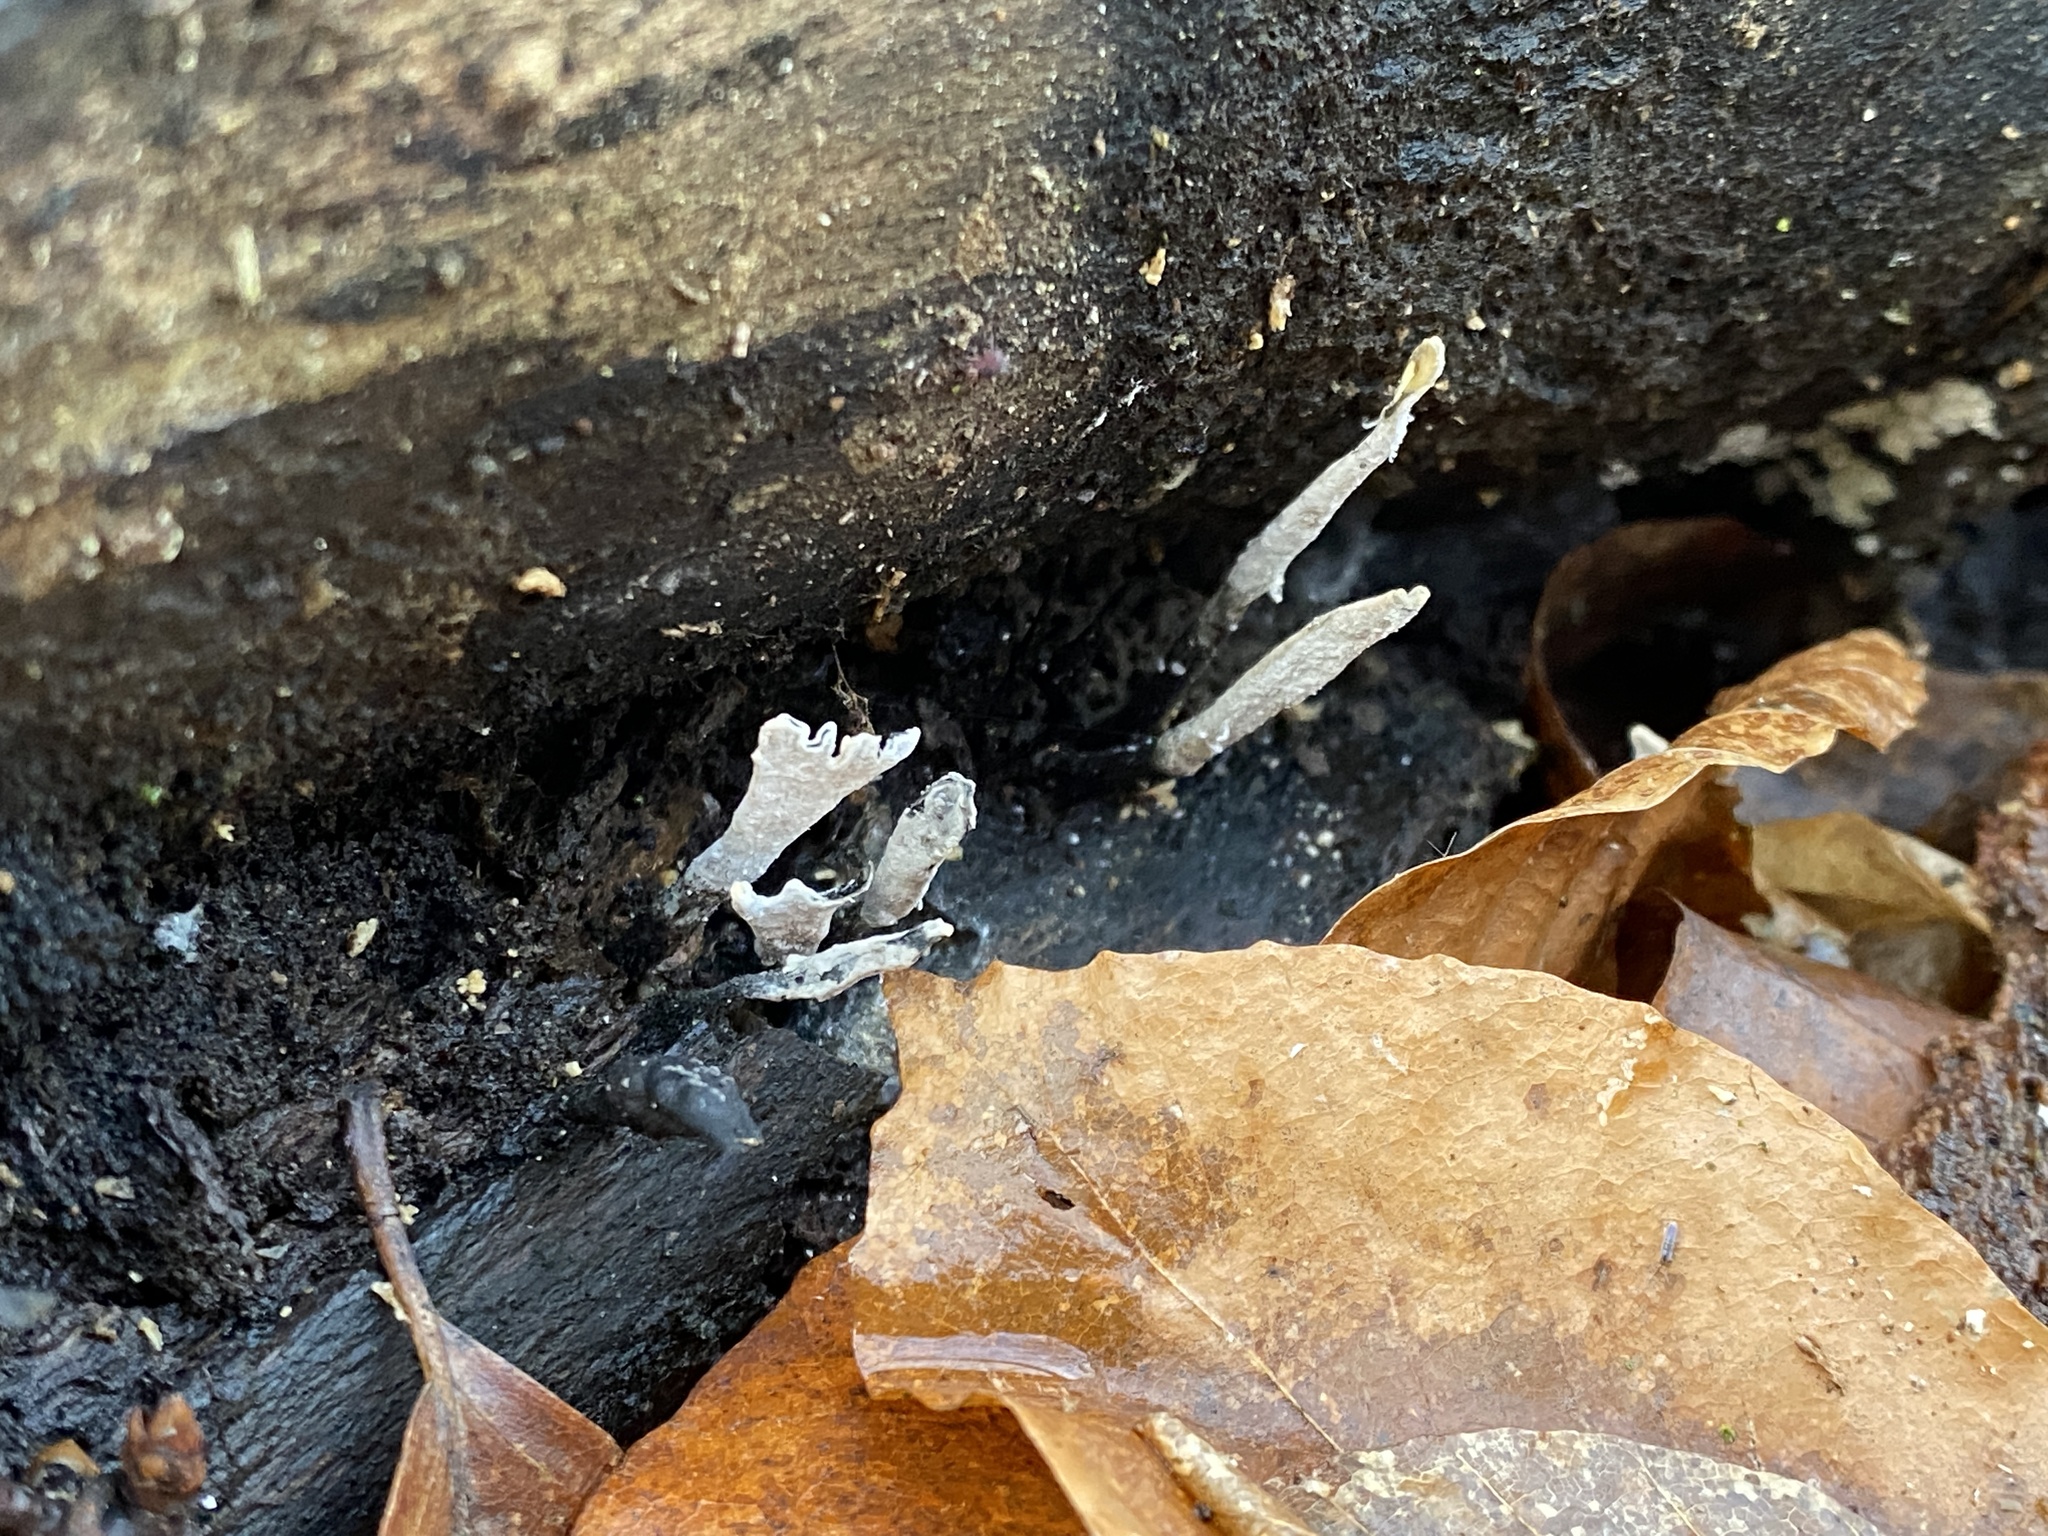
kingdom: Fungi
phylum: Ascomycota
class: Sordariomycetes
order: Xylariales
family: Xylariaceae
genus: Xylaria
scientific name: Xylaria hypoxylon
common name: Candle-snuff fungus
